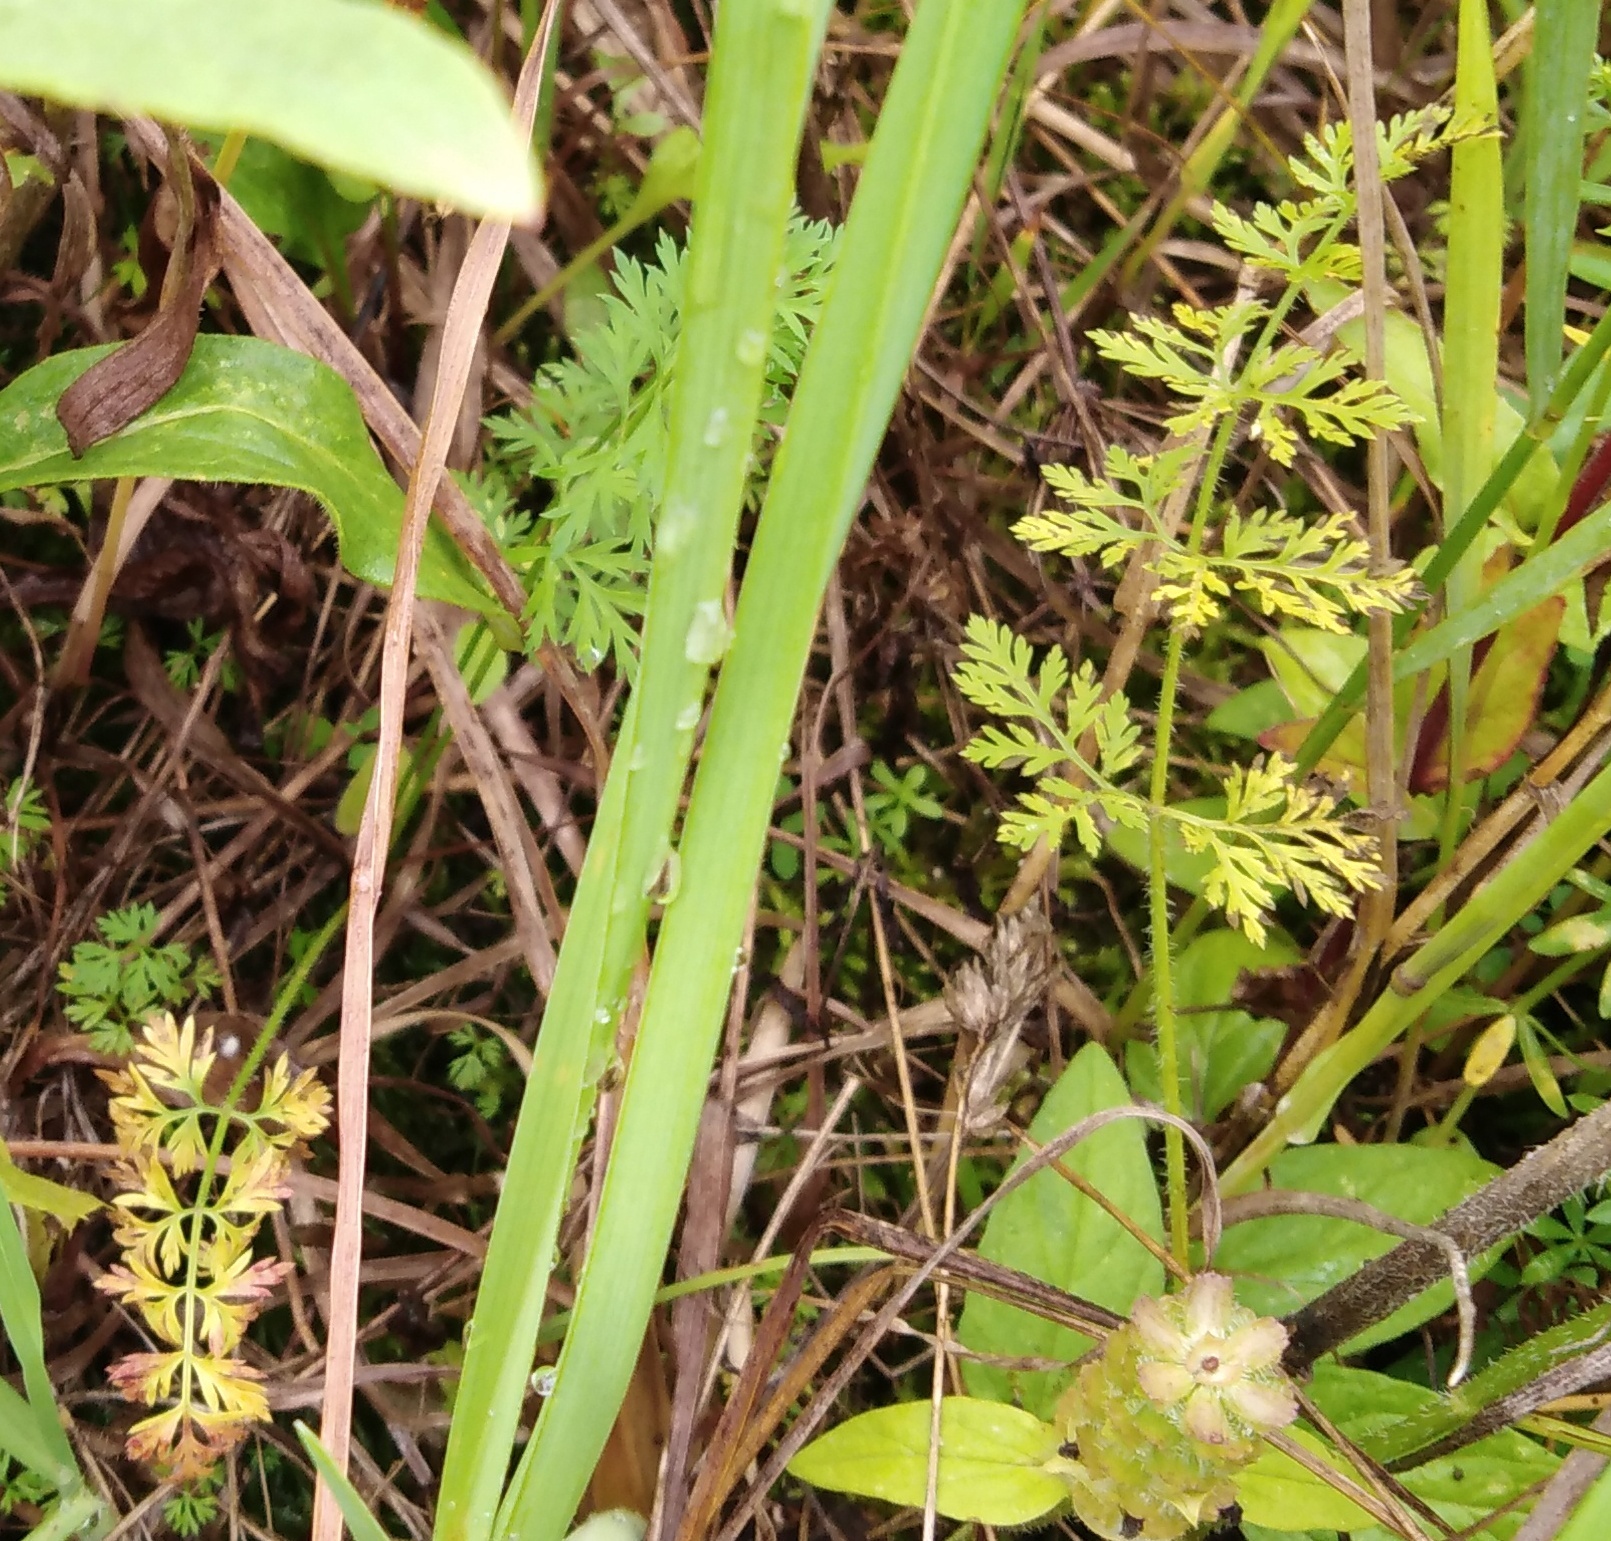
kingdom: Plantae
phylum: Tracheophyta
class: Magnoliopsida
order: Apiales
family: Apiaceae
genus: Daucus
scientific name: Daucus carota
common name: Wild carrot
